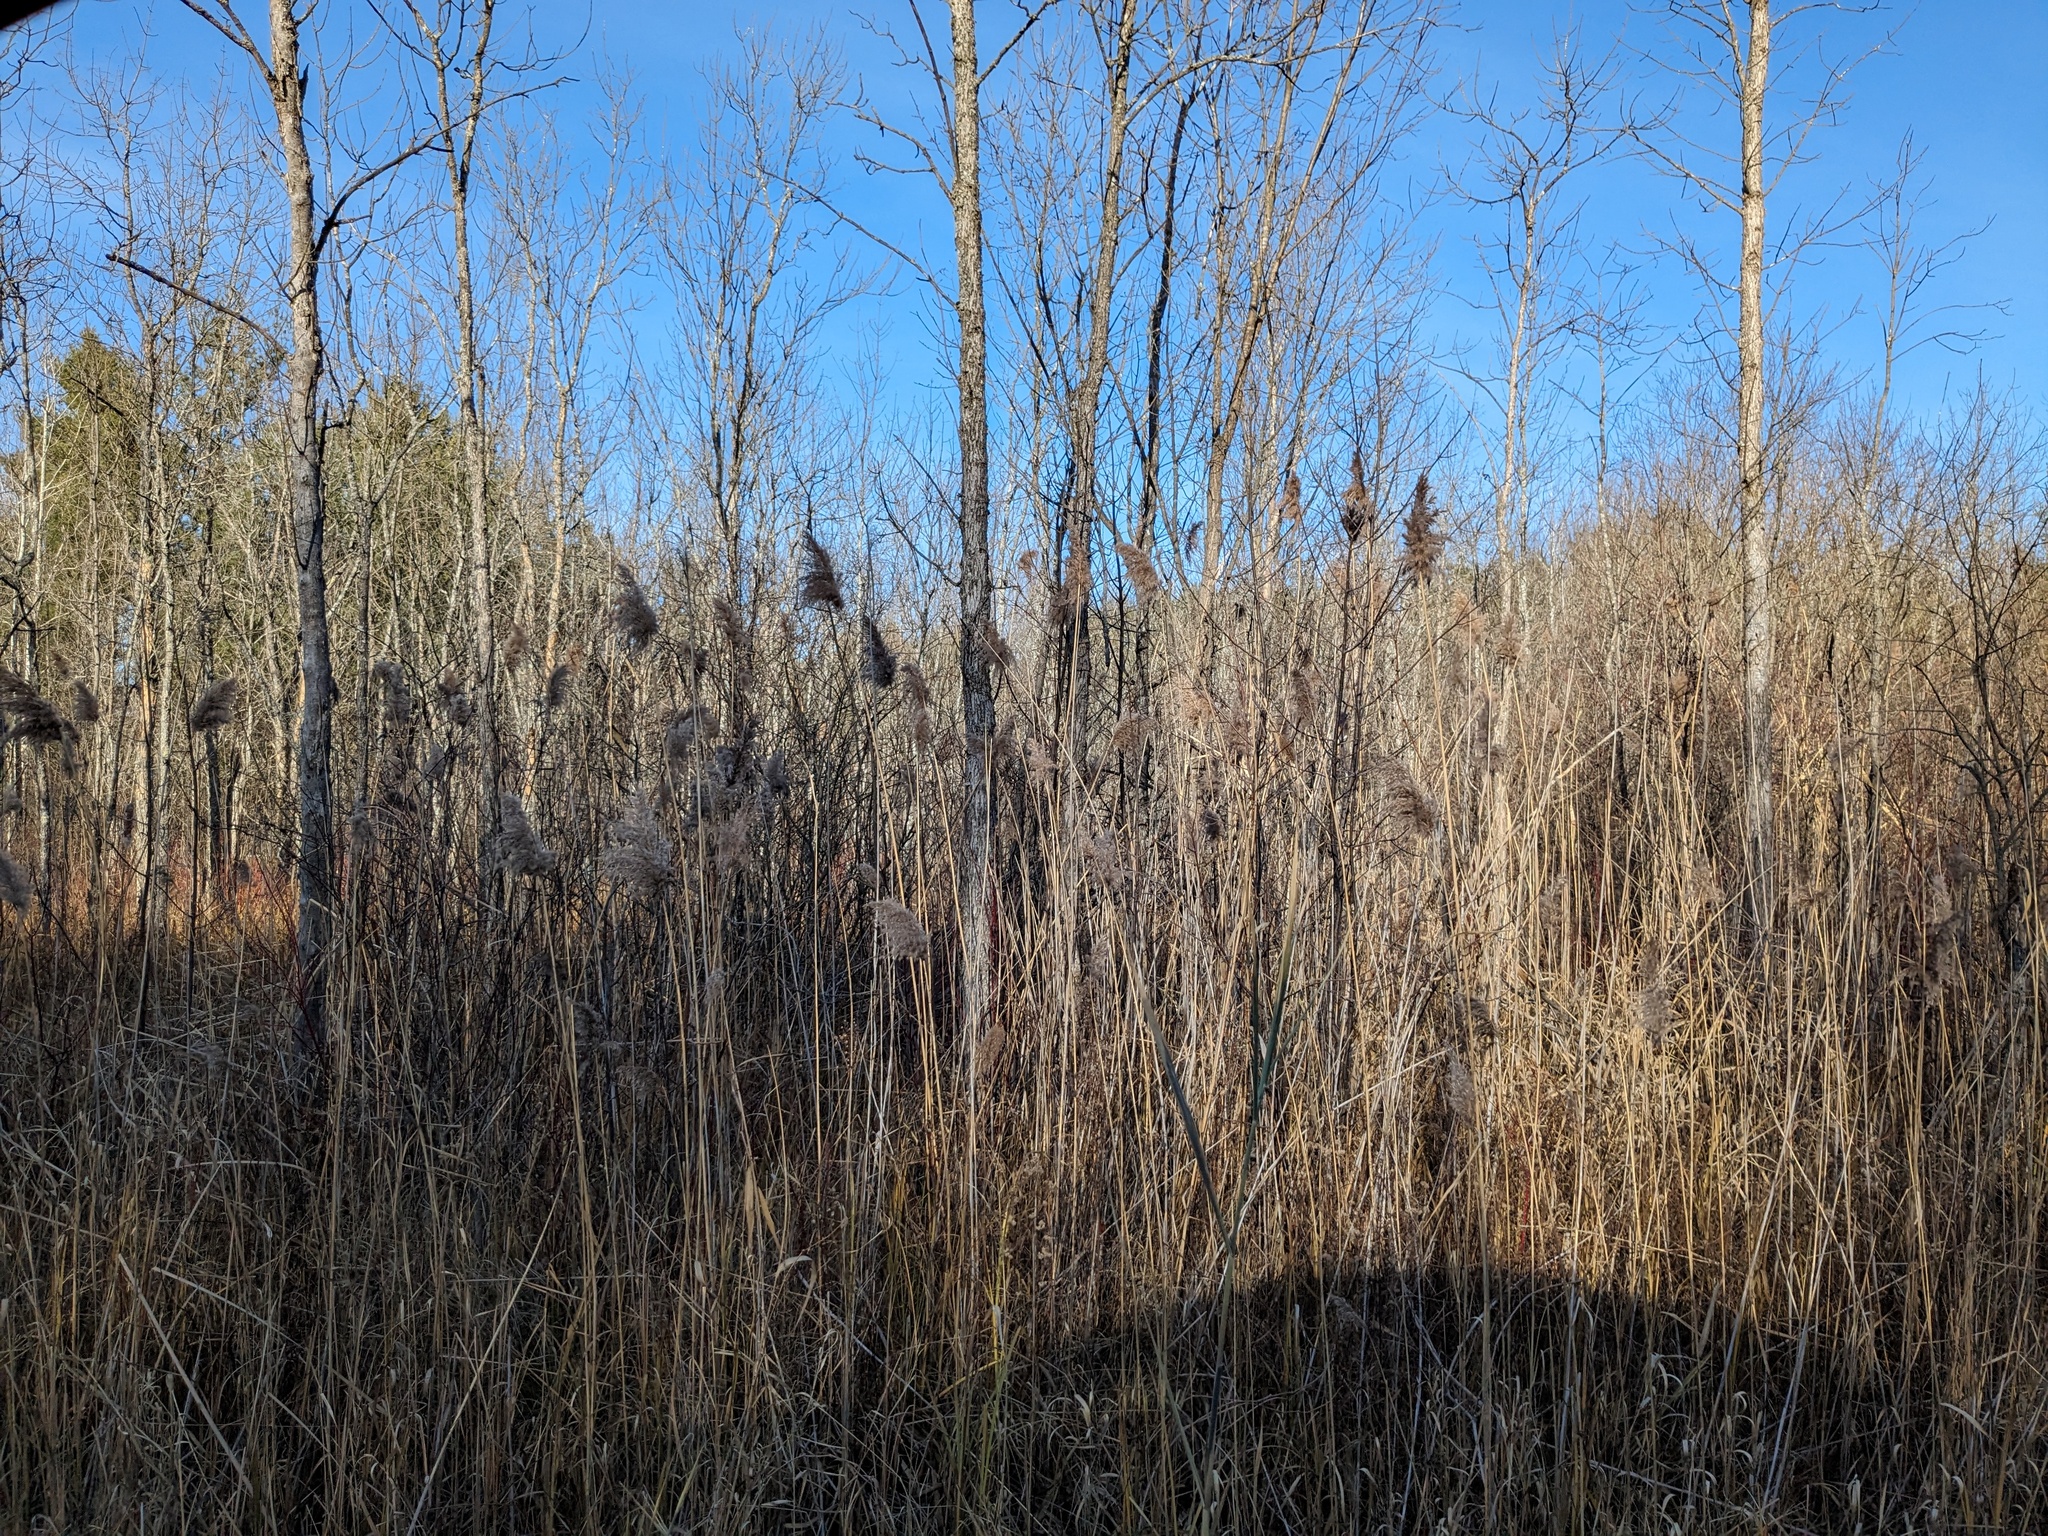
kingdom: Plantae
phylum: Tracheophyta
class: Liliopsida
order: Poales
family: Poaceae
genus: Phragmites
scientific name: Phragmites australis
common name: Common reed
